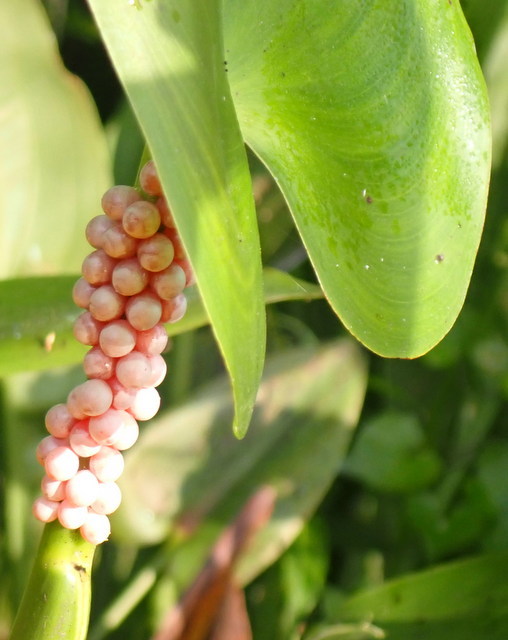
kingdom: Animalia
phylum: Mollusca
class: Gastropoda
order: Architaenioglossa
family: Ampullariidae
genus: Pomacea
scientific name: Pomacea paludosa
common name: Florida applesnail
